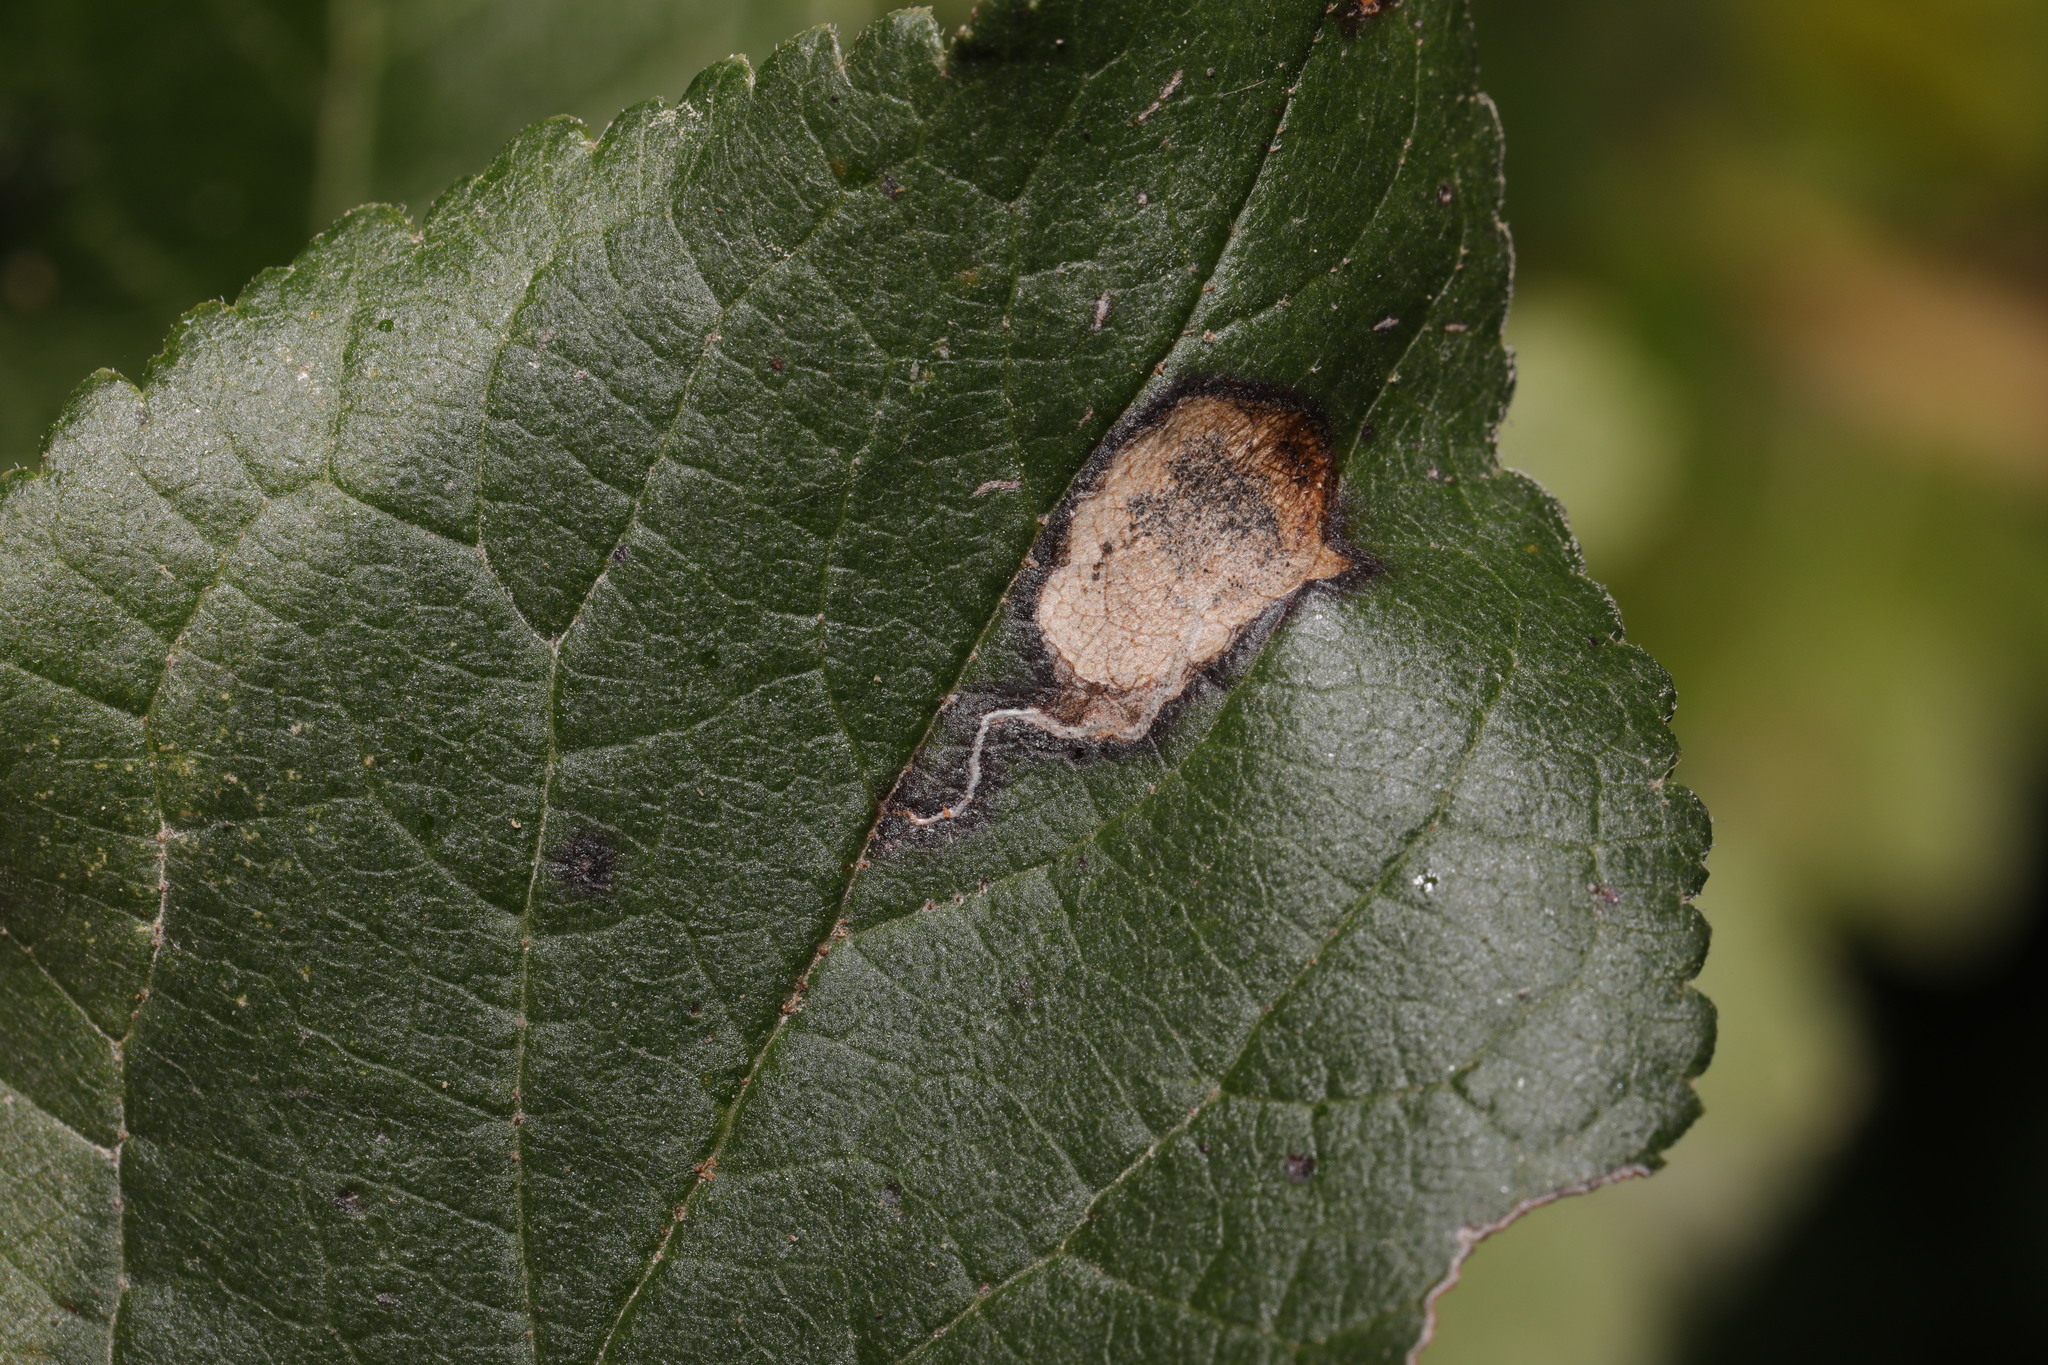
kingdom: Animalia
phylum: Arthropoda
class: Insecta
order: Lepidoptera
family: Nepticulidae
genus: Stigmella
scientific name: Stigmella plagicolella
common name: Scrubland pigmy
